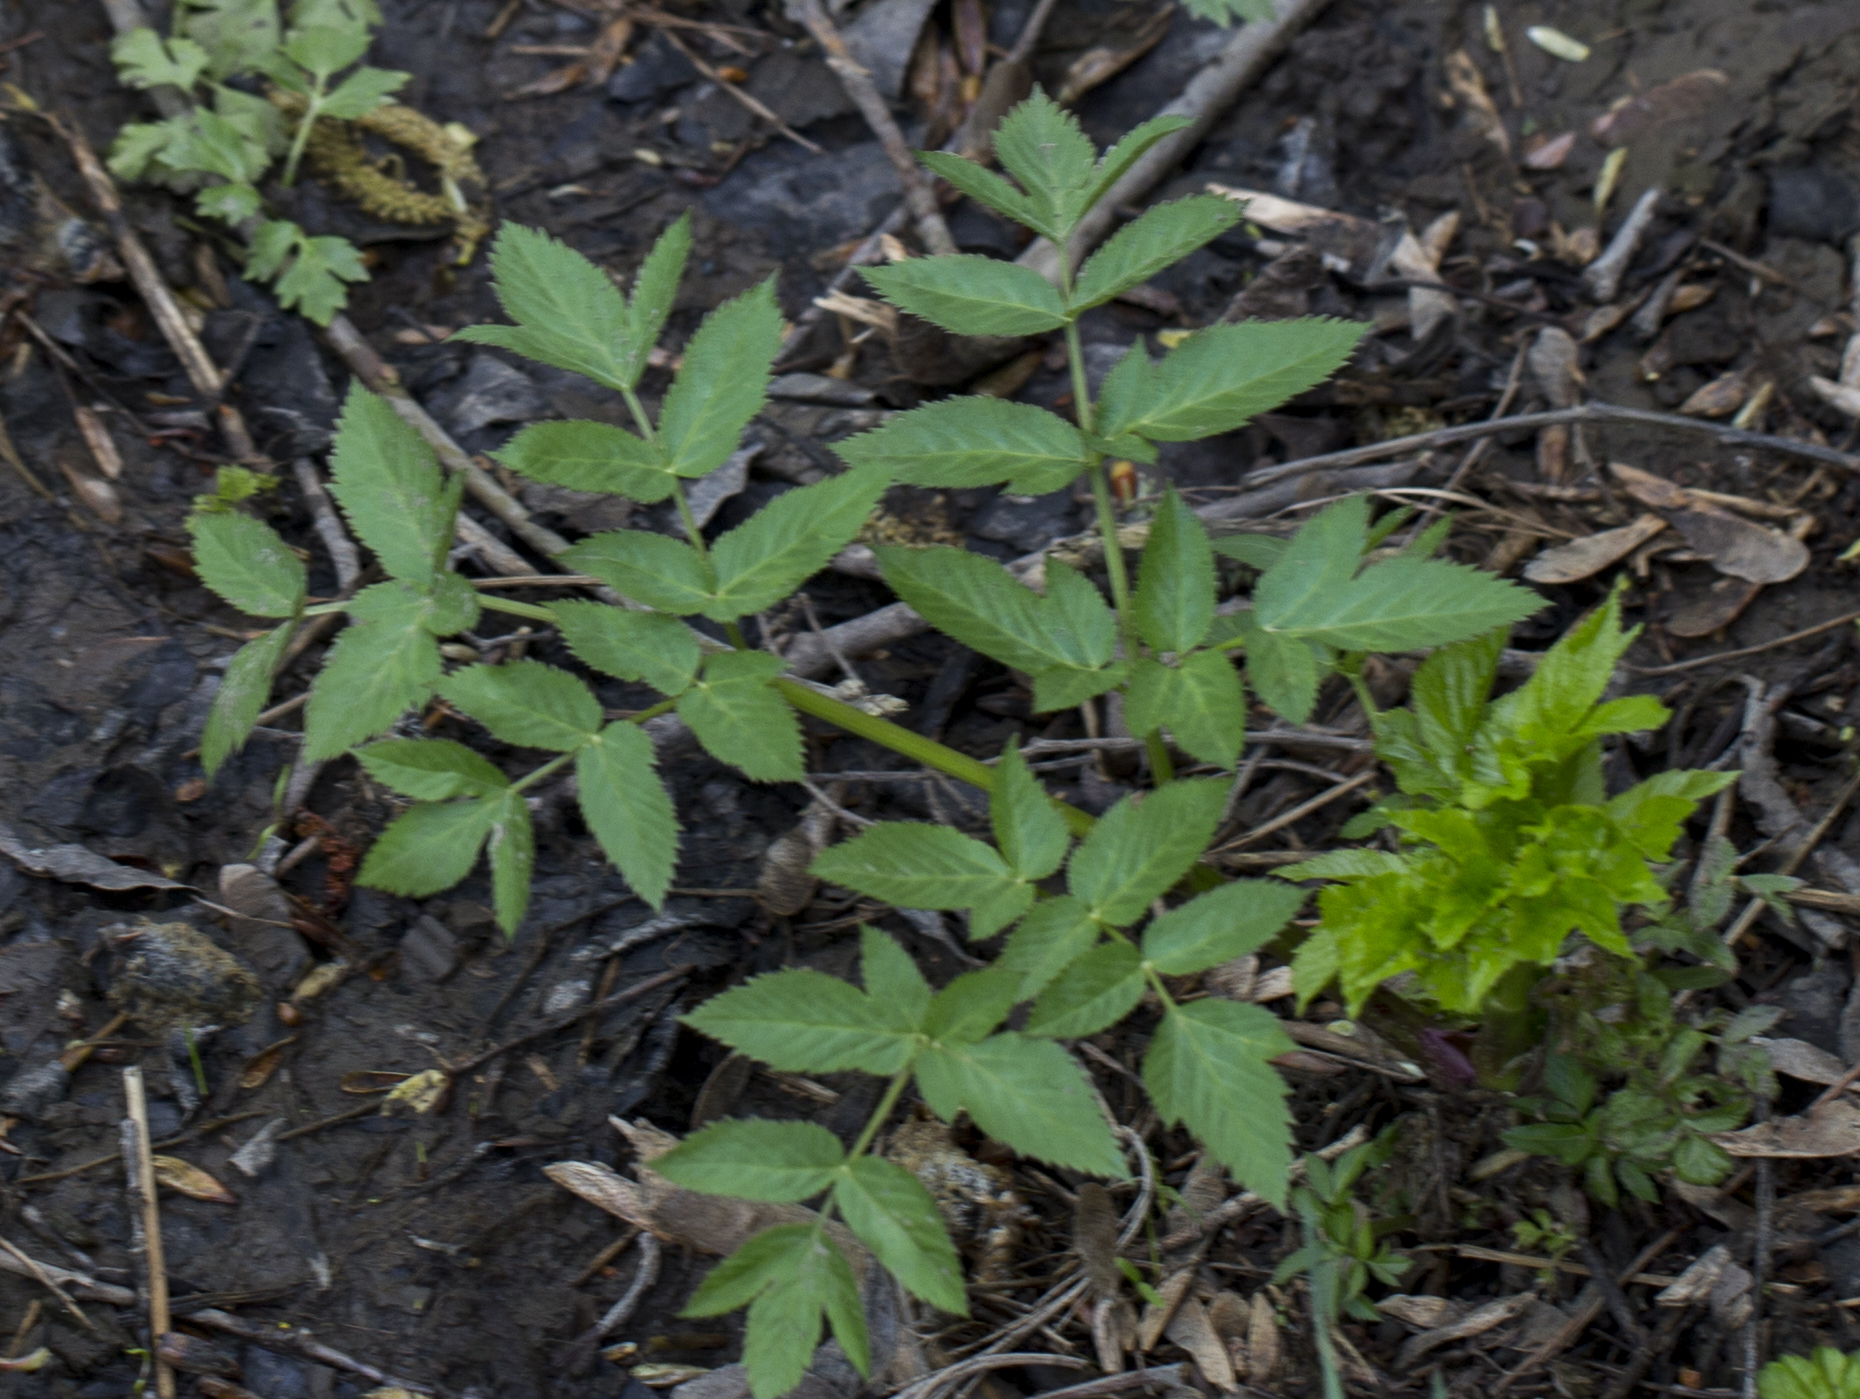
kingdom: Plantae
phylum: Tracheophyta
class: Magnoliopsida
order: Apiales
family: Apiaceae
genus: Angelica
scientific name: Angelica sylvestris
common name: Wild angelica
